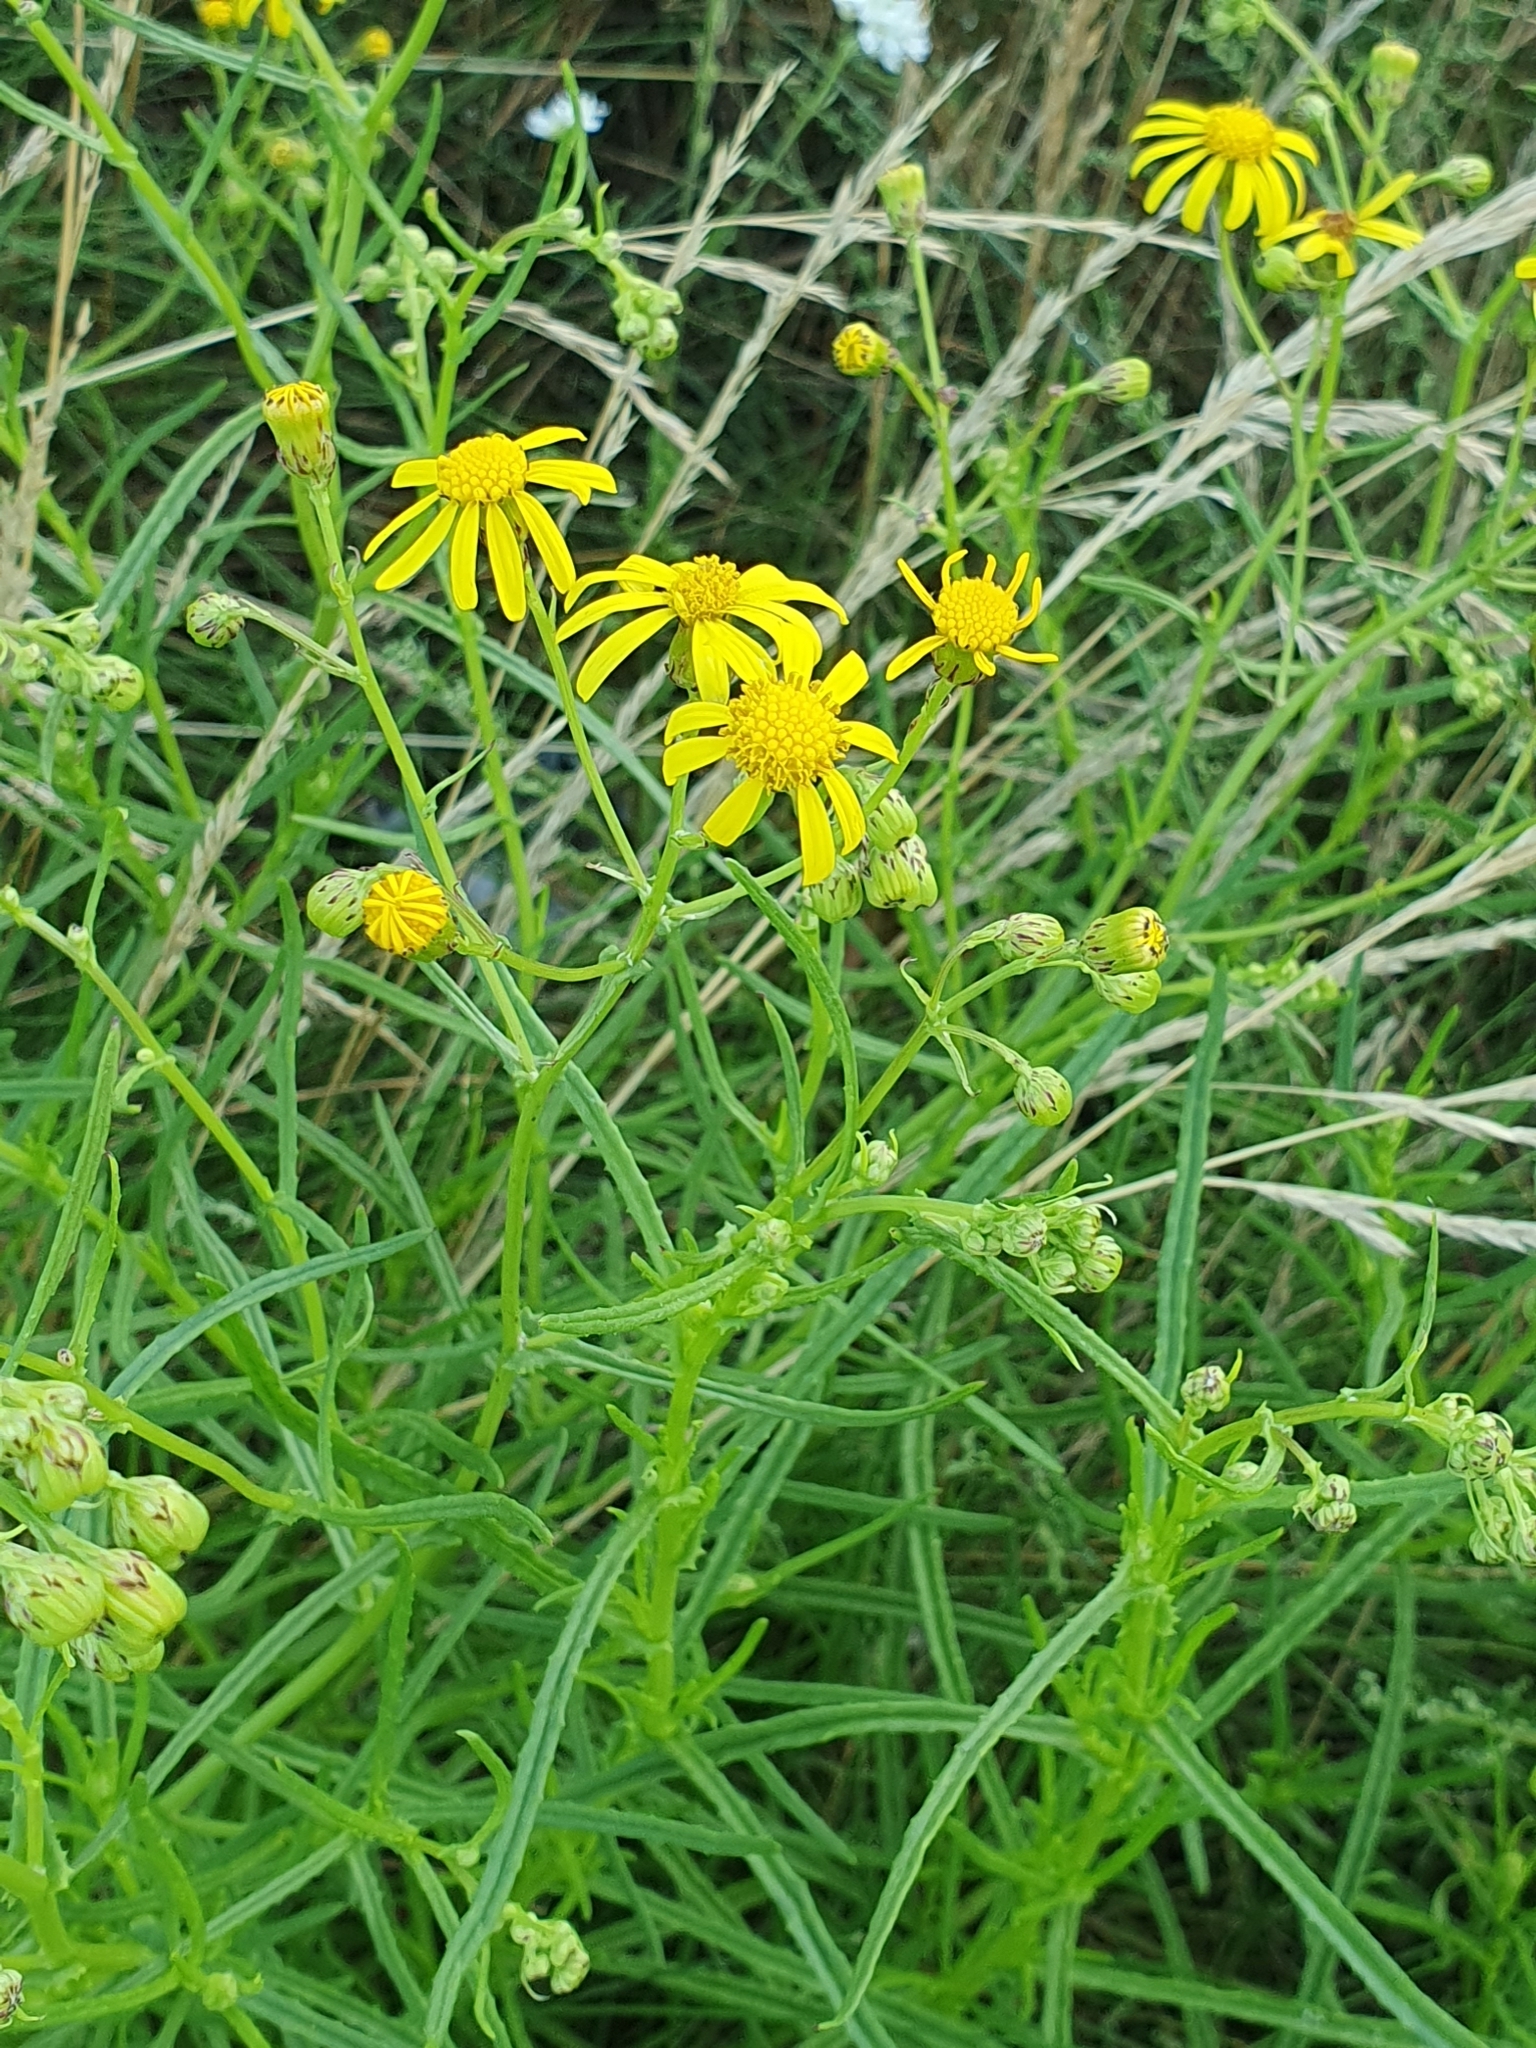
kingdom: Plantae
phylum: Tracheophyta
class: Magnoliopsida
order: Asterales
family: Asteraceae
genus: Senecio
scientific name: Senecio inaequidens
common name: Narrow-leaved ragwort
